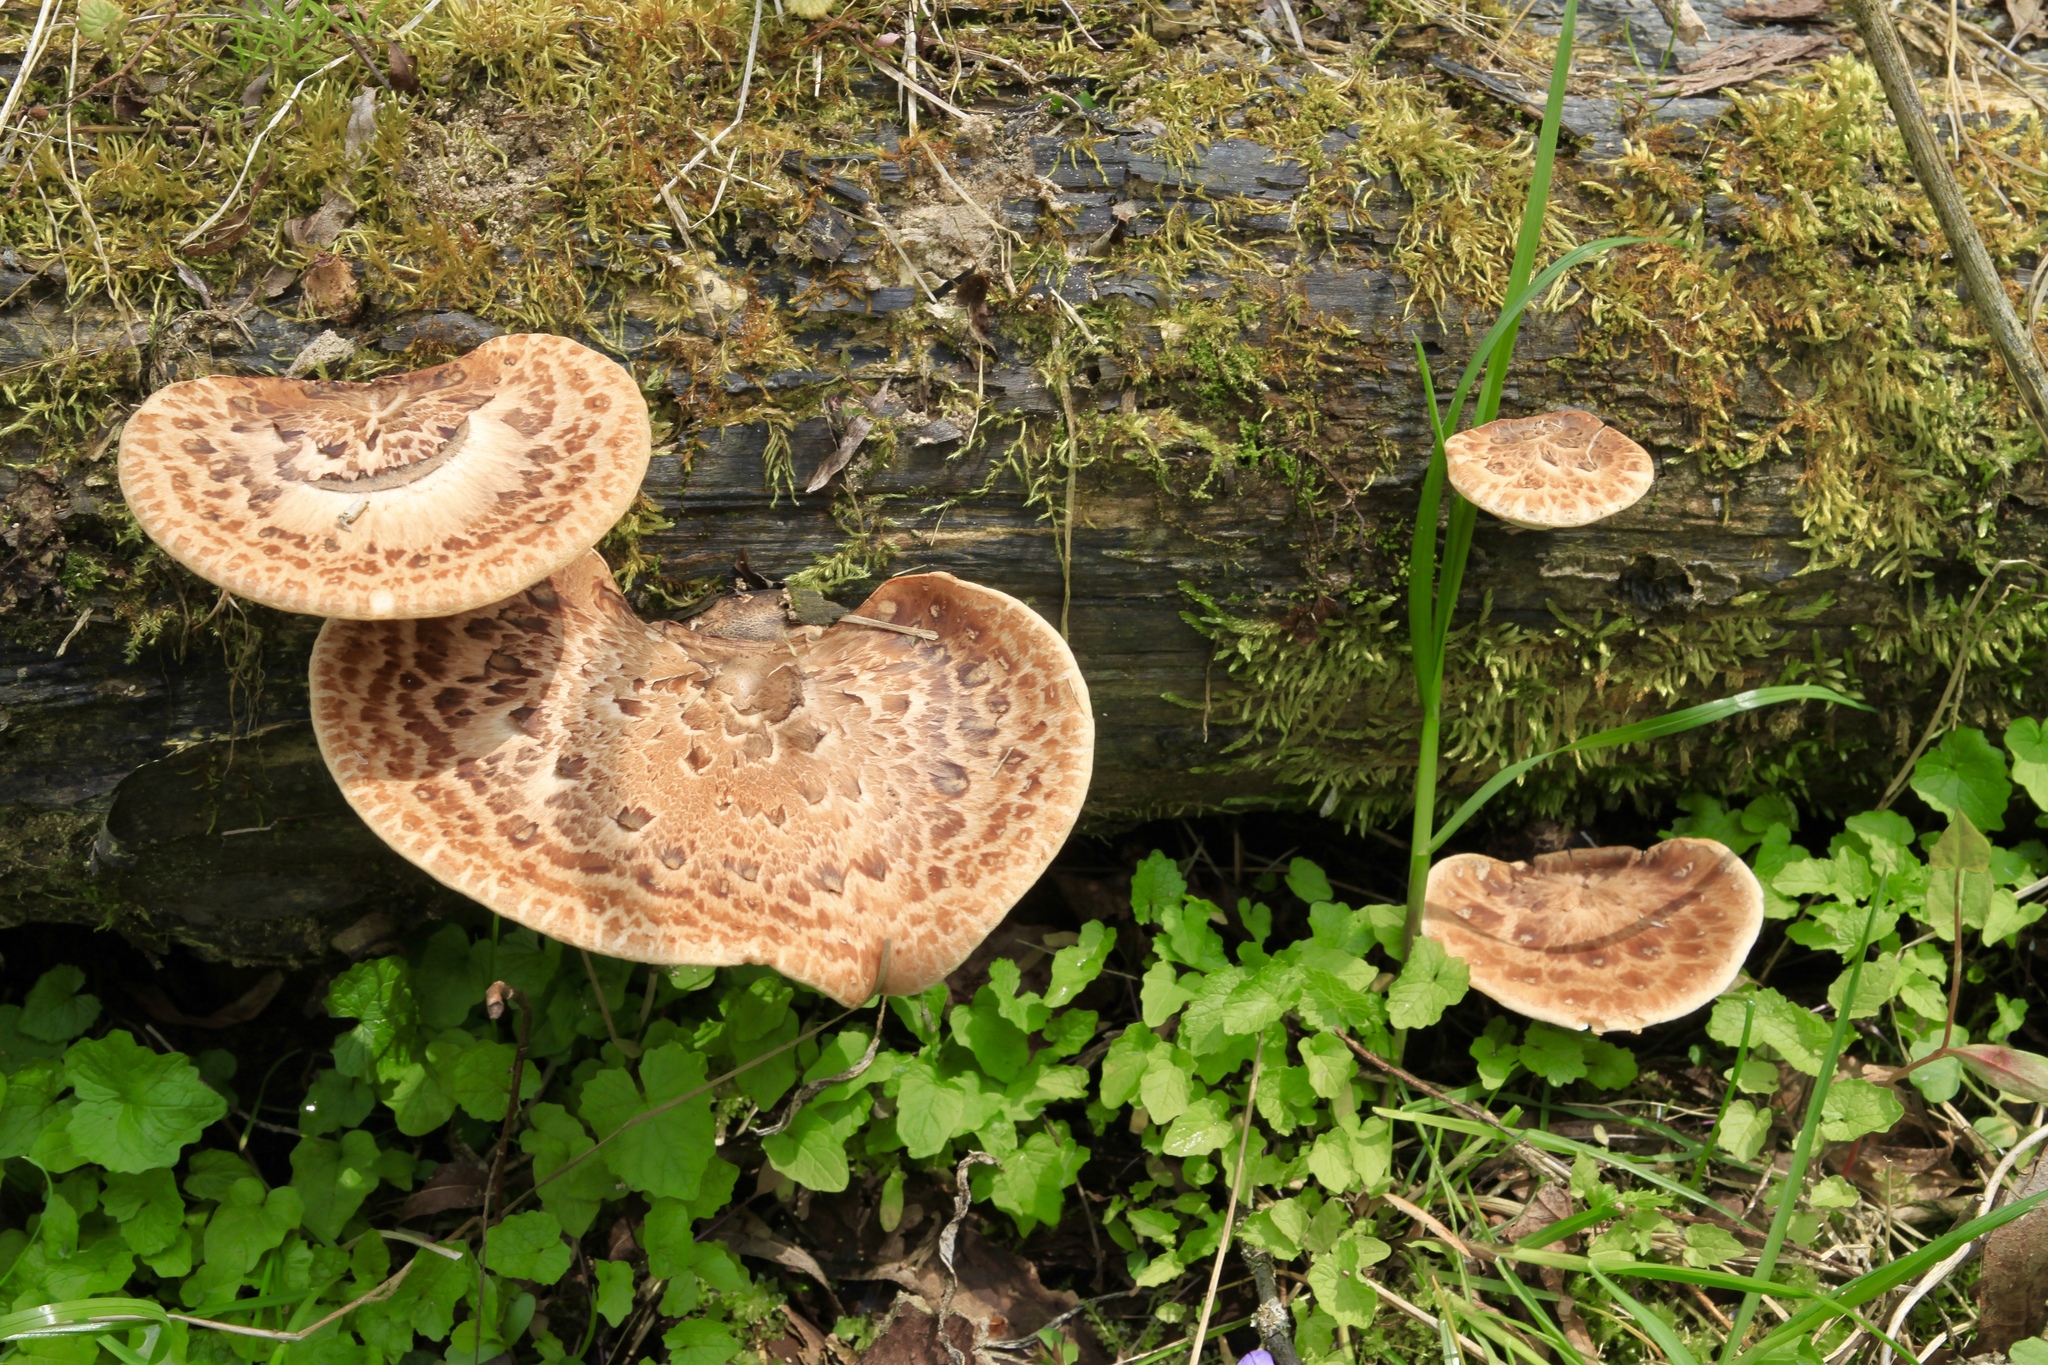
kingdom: Fungi
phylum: Basidiomycota
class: Agaricomycetes
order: Polyporales
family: Polyporaceae
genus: Cerioporus
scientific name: Cerioporus squamosus
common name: Dryad's saddle
